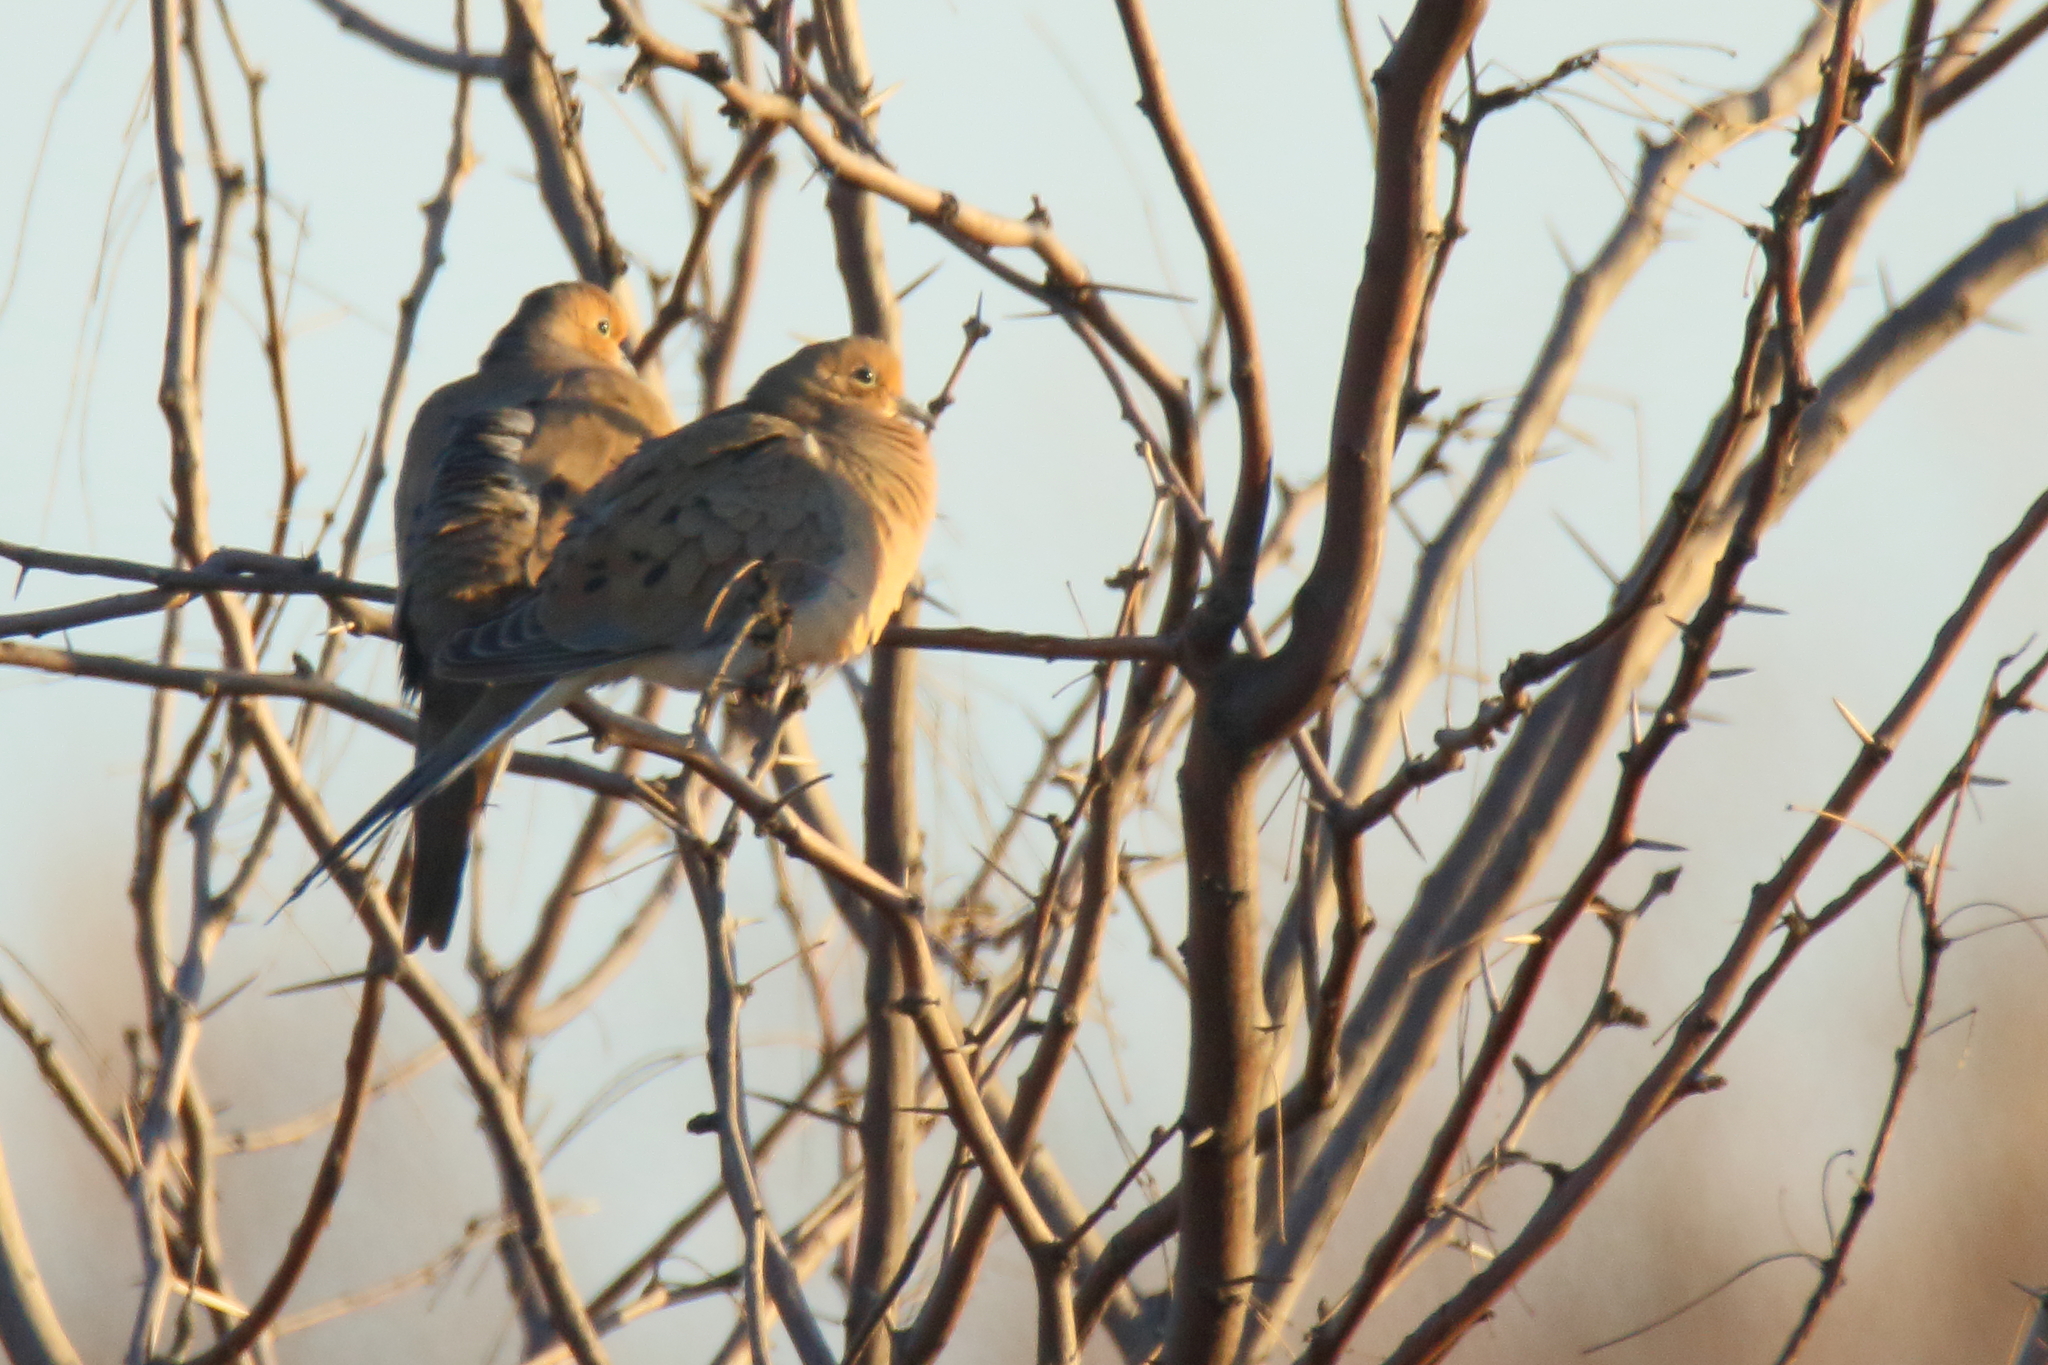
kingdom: Animalia
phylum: Chordata
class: Aves
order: Columbiformes
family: Columbidae
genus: Zenaida
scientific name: Zenaida macroura
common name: Mourning dove
